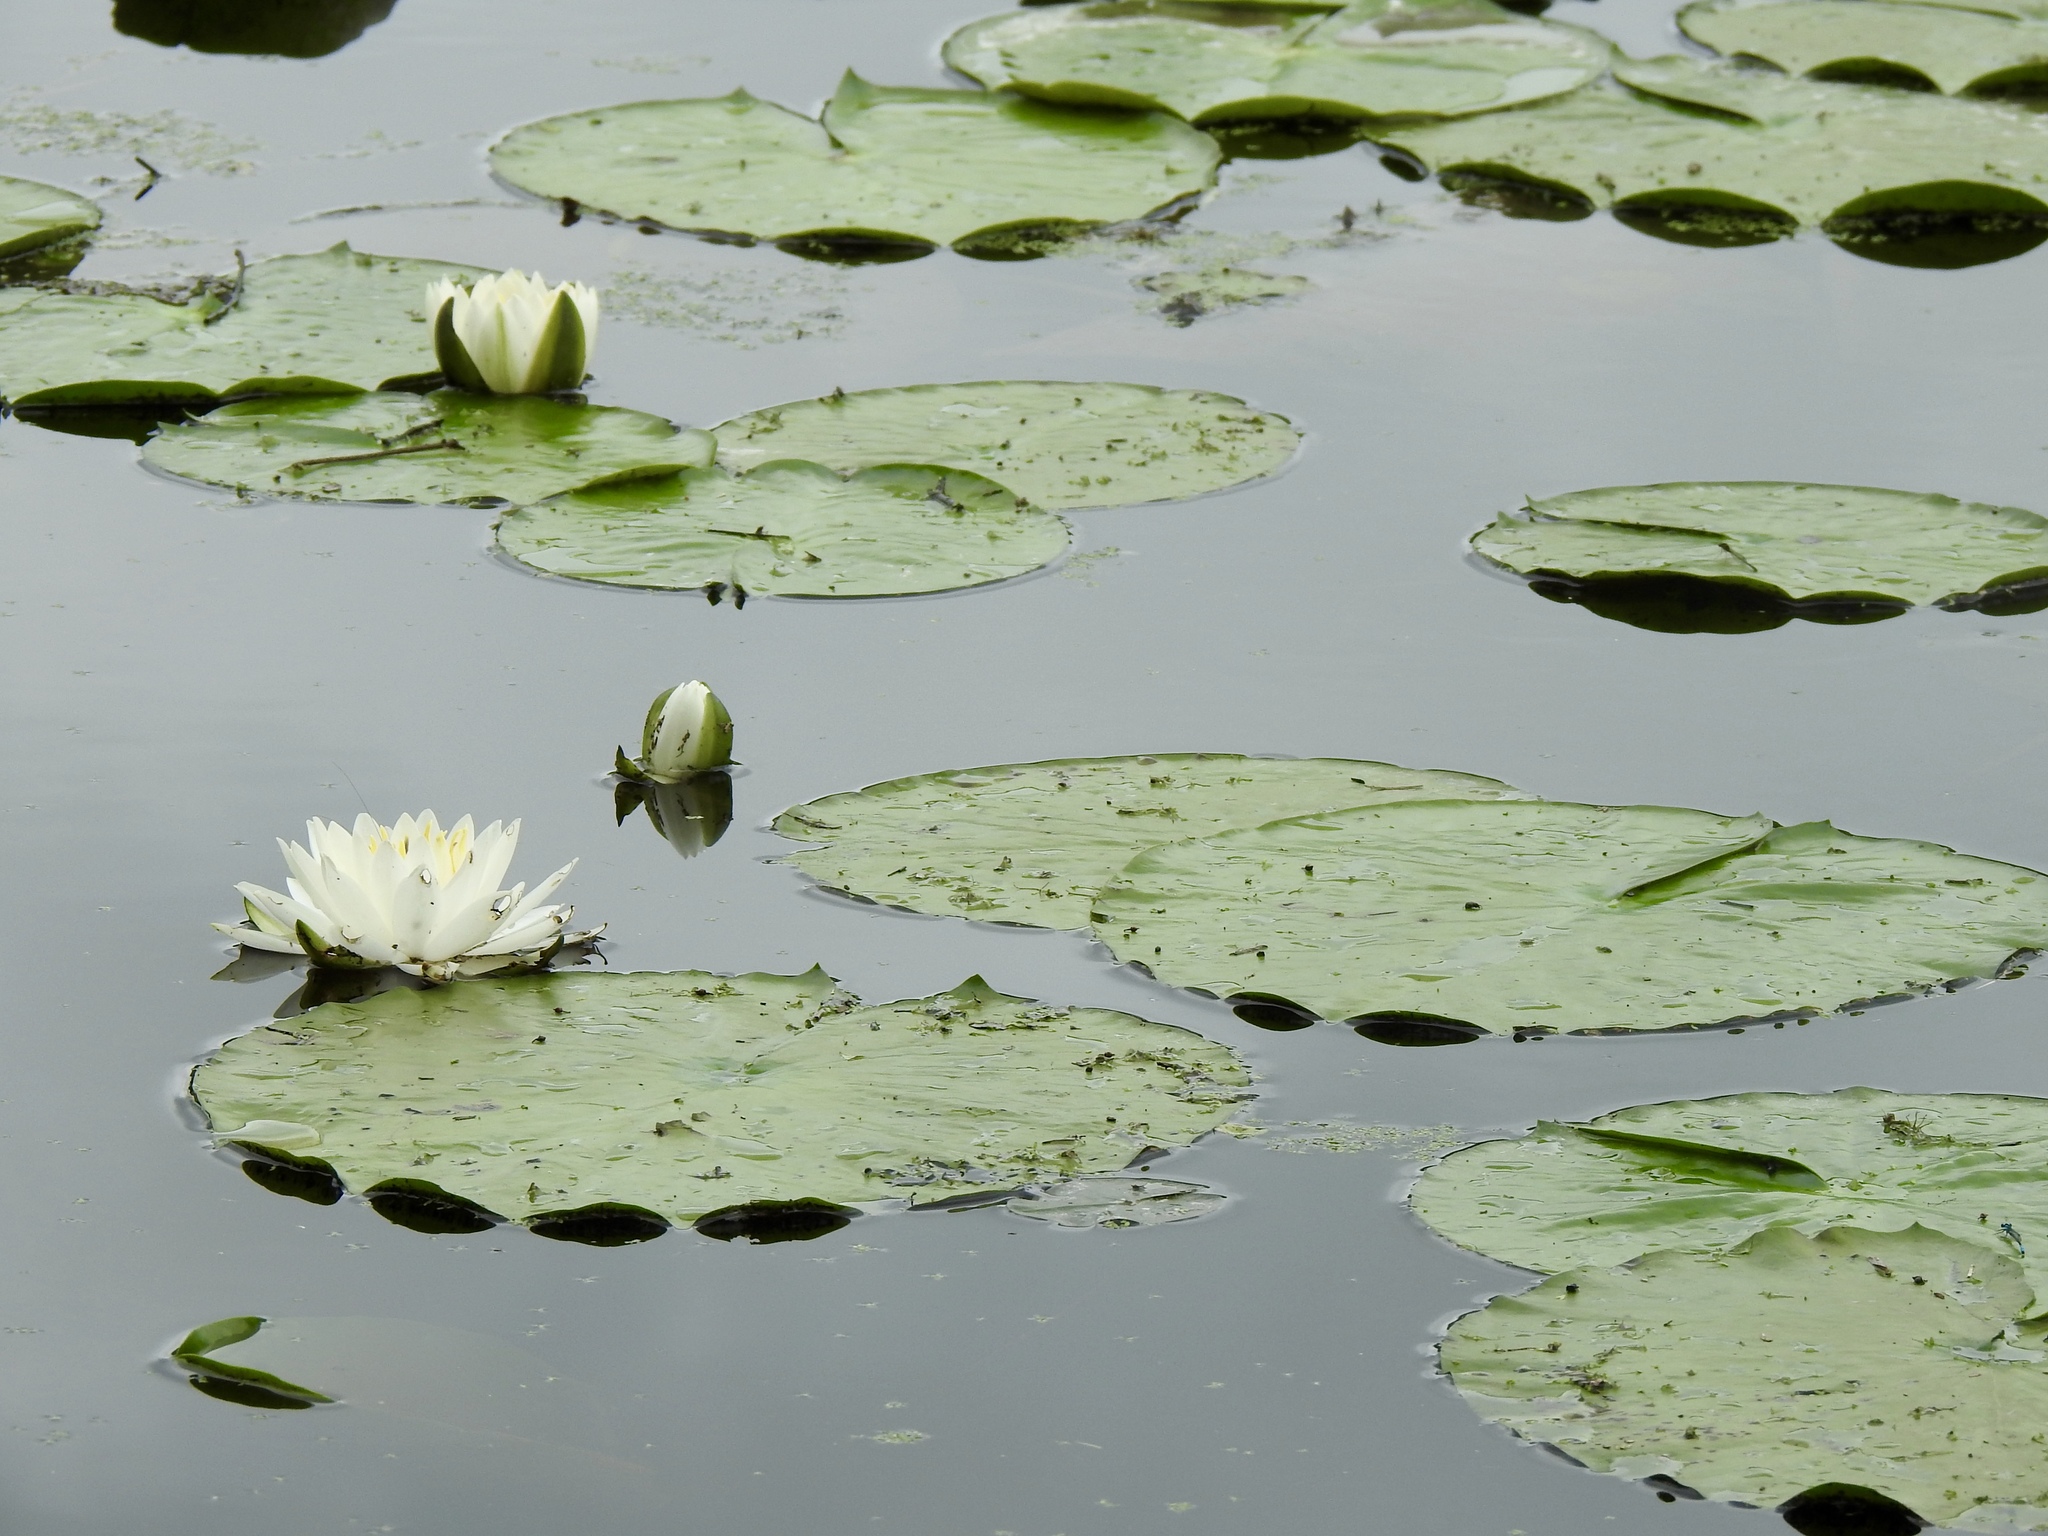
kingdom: Plantae
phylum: Tracheophyta
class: Magnoliopsida
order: Nymphaeales
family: Nymphaeaceae
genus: Nymphaea
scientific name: Nymphaea odorata
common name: Fragrant water-lily
